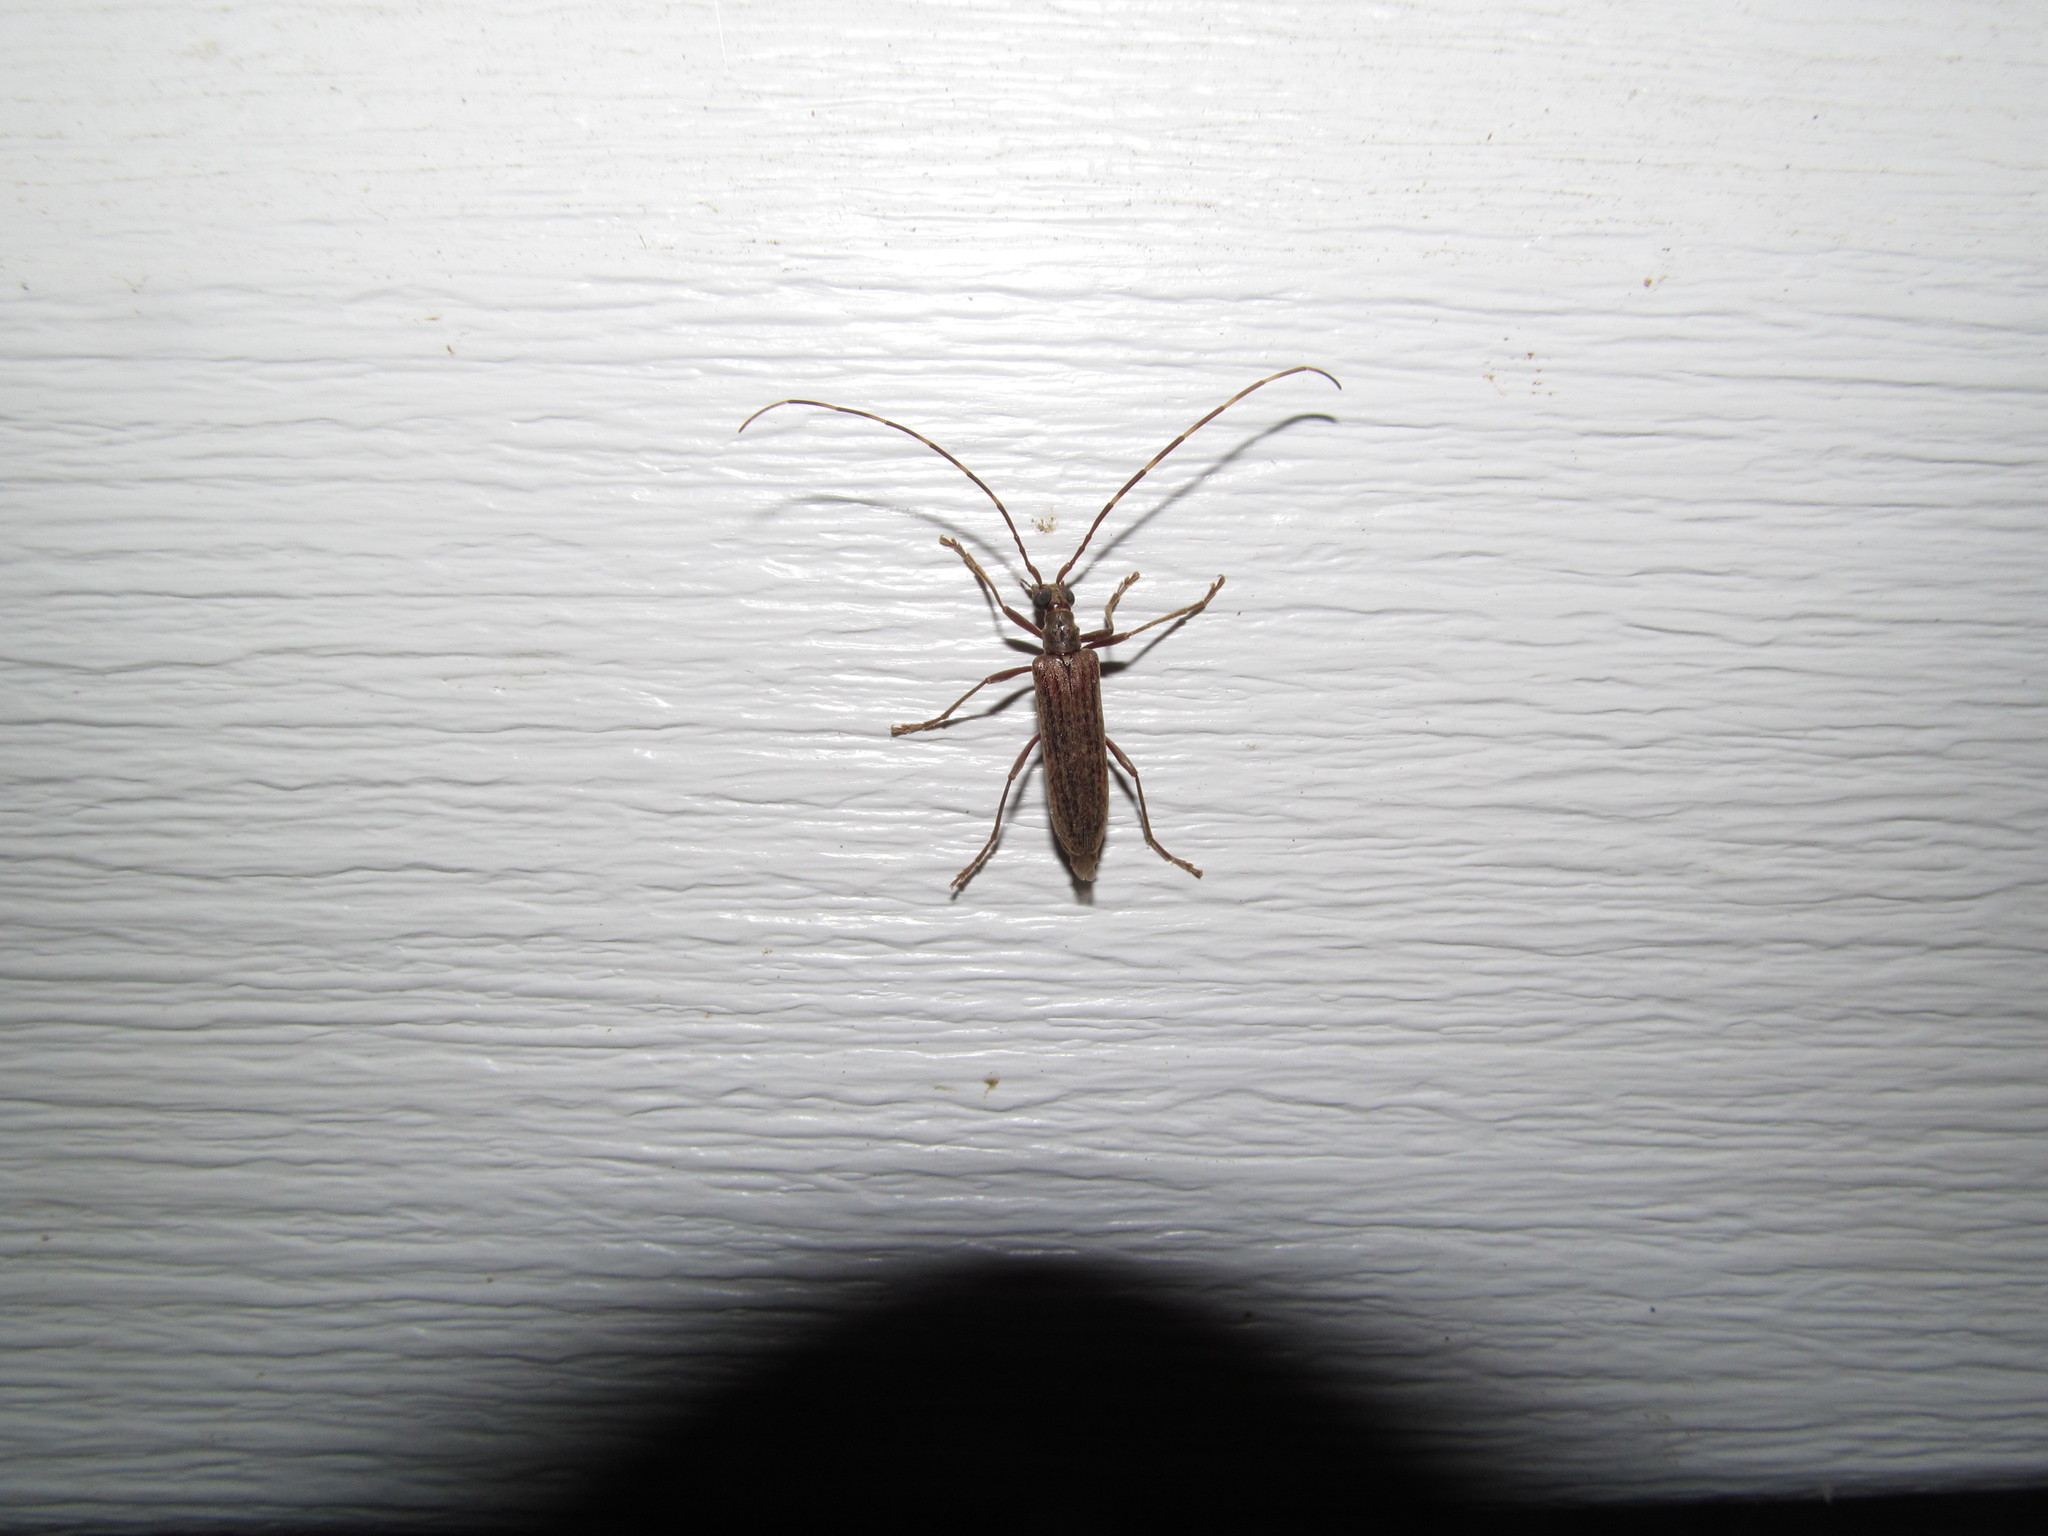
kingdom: Animalia
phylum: Arthropoda
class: Insecta
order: Coleoptera
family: Cerambycidae
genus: Centrodera
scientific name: Centrodera sublineata
